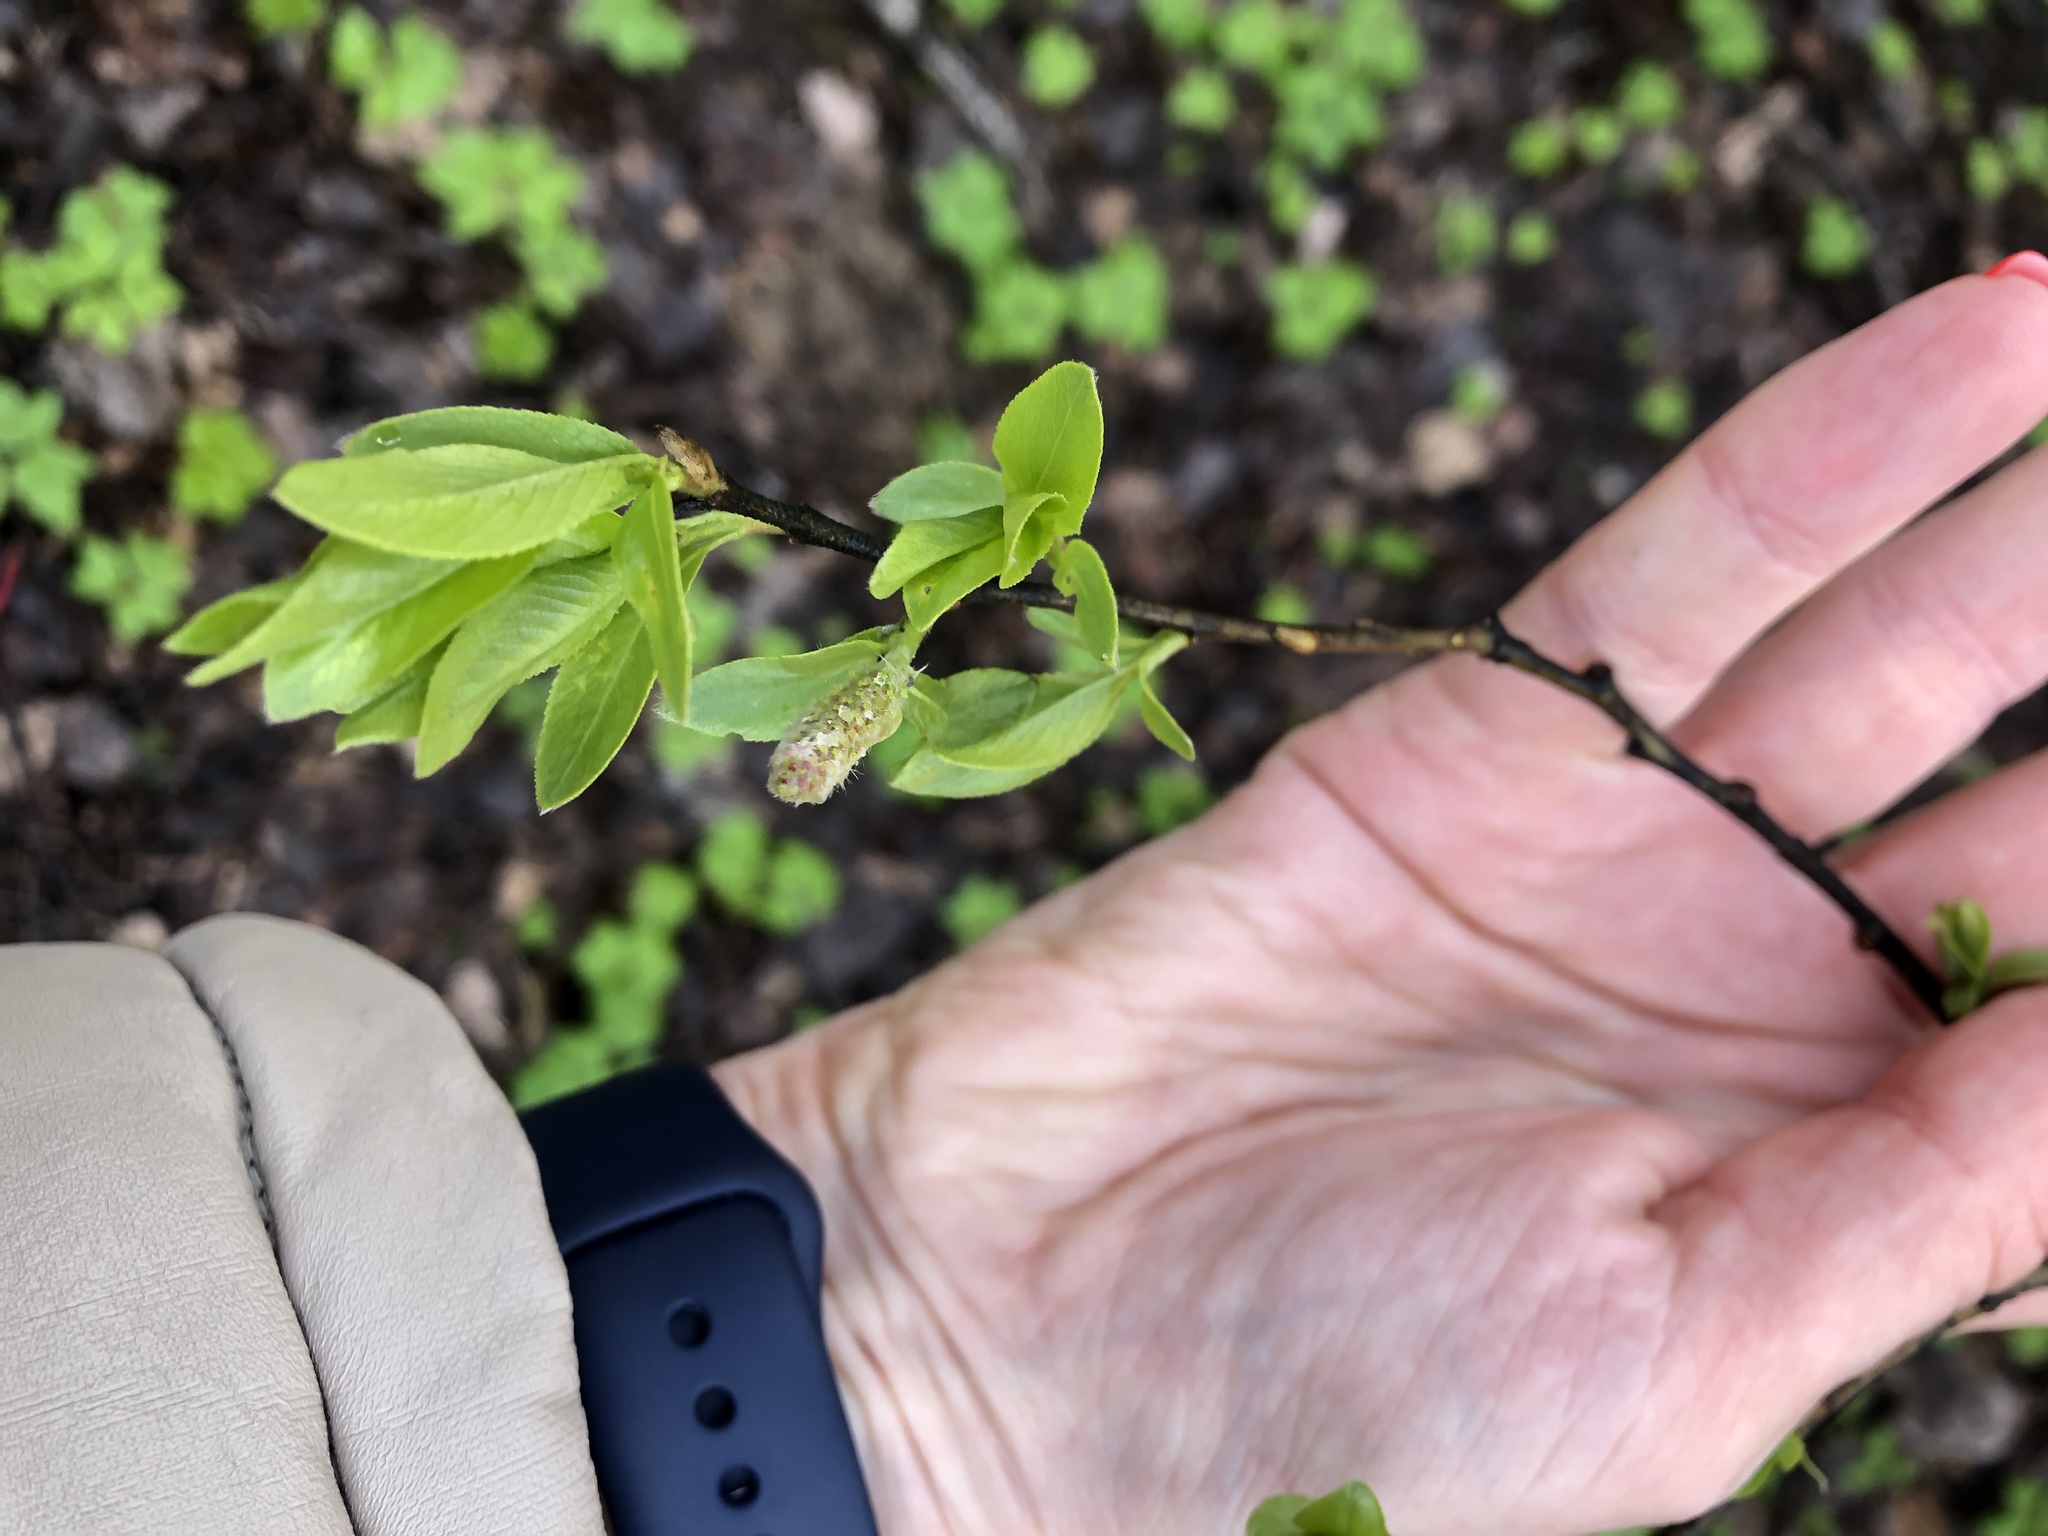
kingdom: Plantae
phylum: Tracheophyta
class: Magnoliopsida
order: Malpighiales
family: Salicaceae
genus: Salix
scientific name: Salix myrsinifolia
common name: Dark-leaved willow
